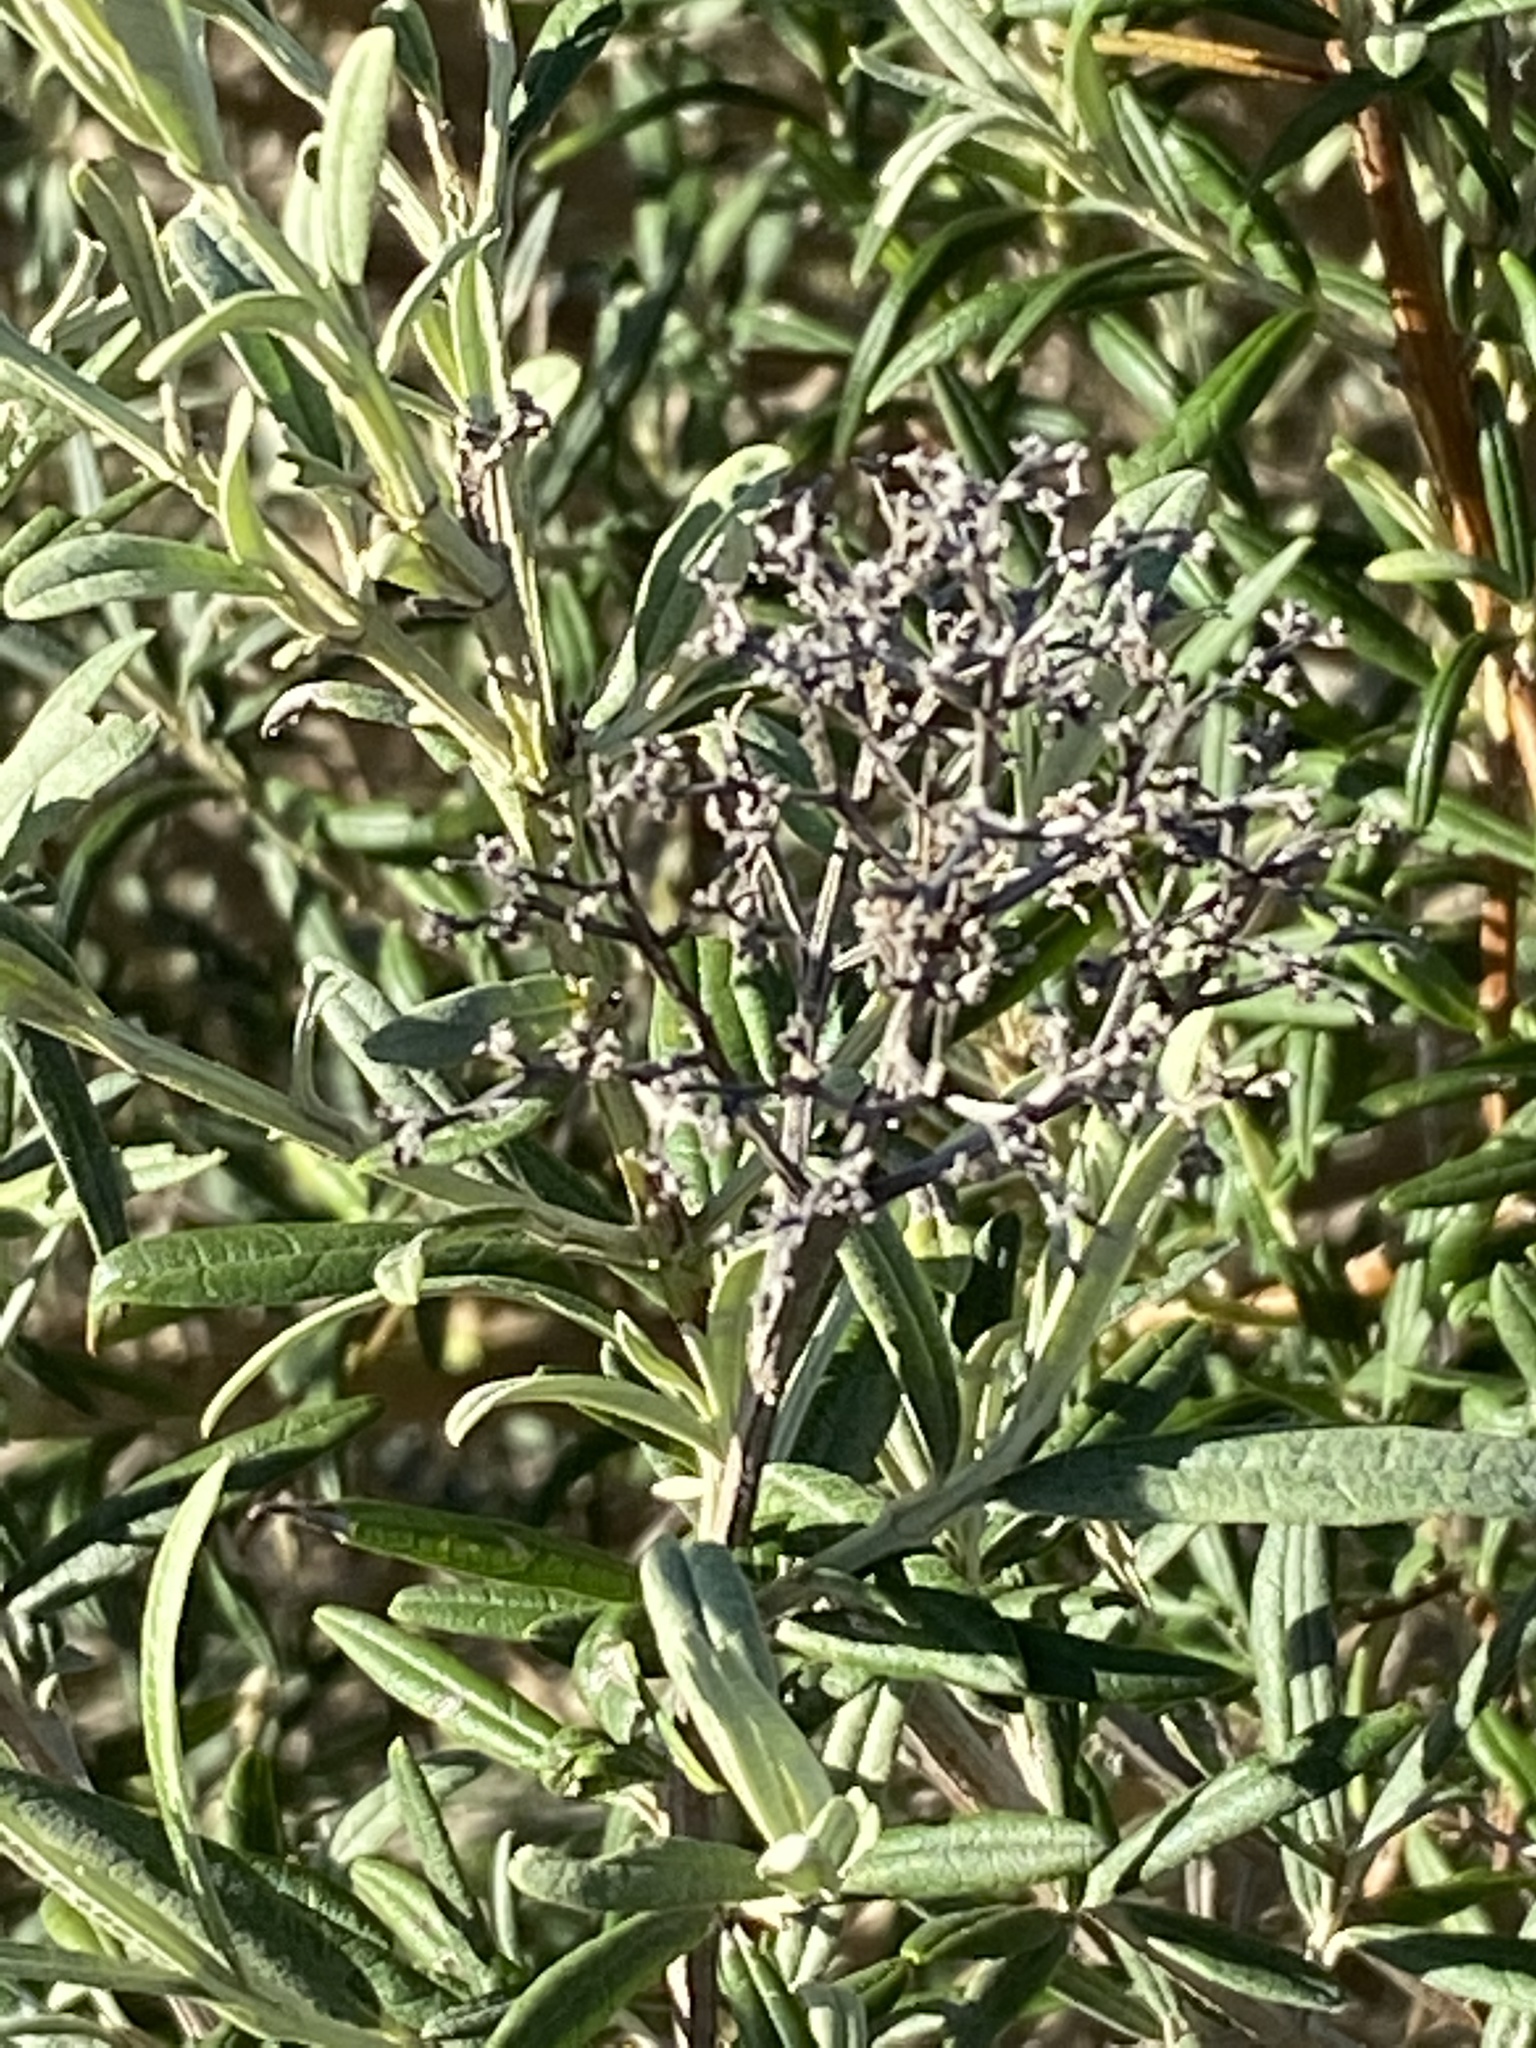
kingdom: Plantae
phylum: Tracheophyta
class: Magnoliopsida
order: Lamiales
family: Scrophulariaceae
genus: Buddleja
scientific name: Buddleja saligna
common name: False olive
